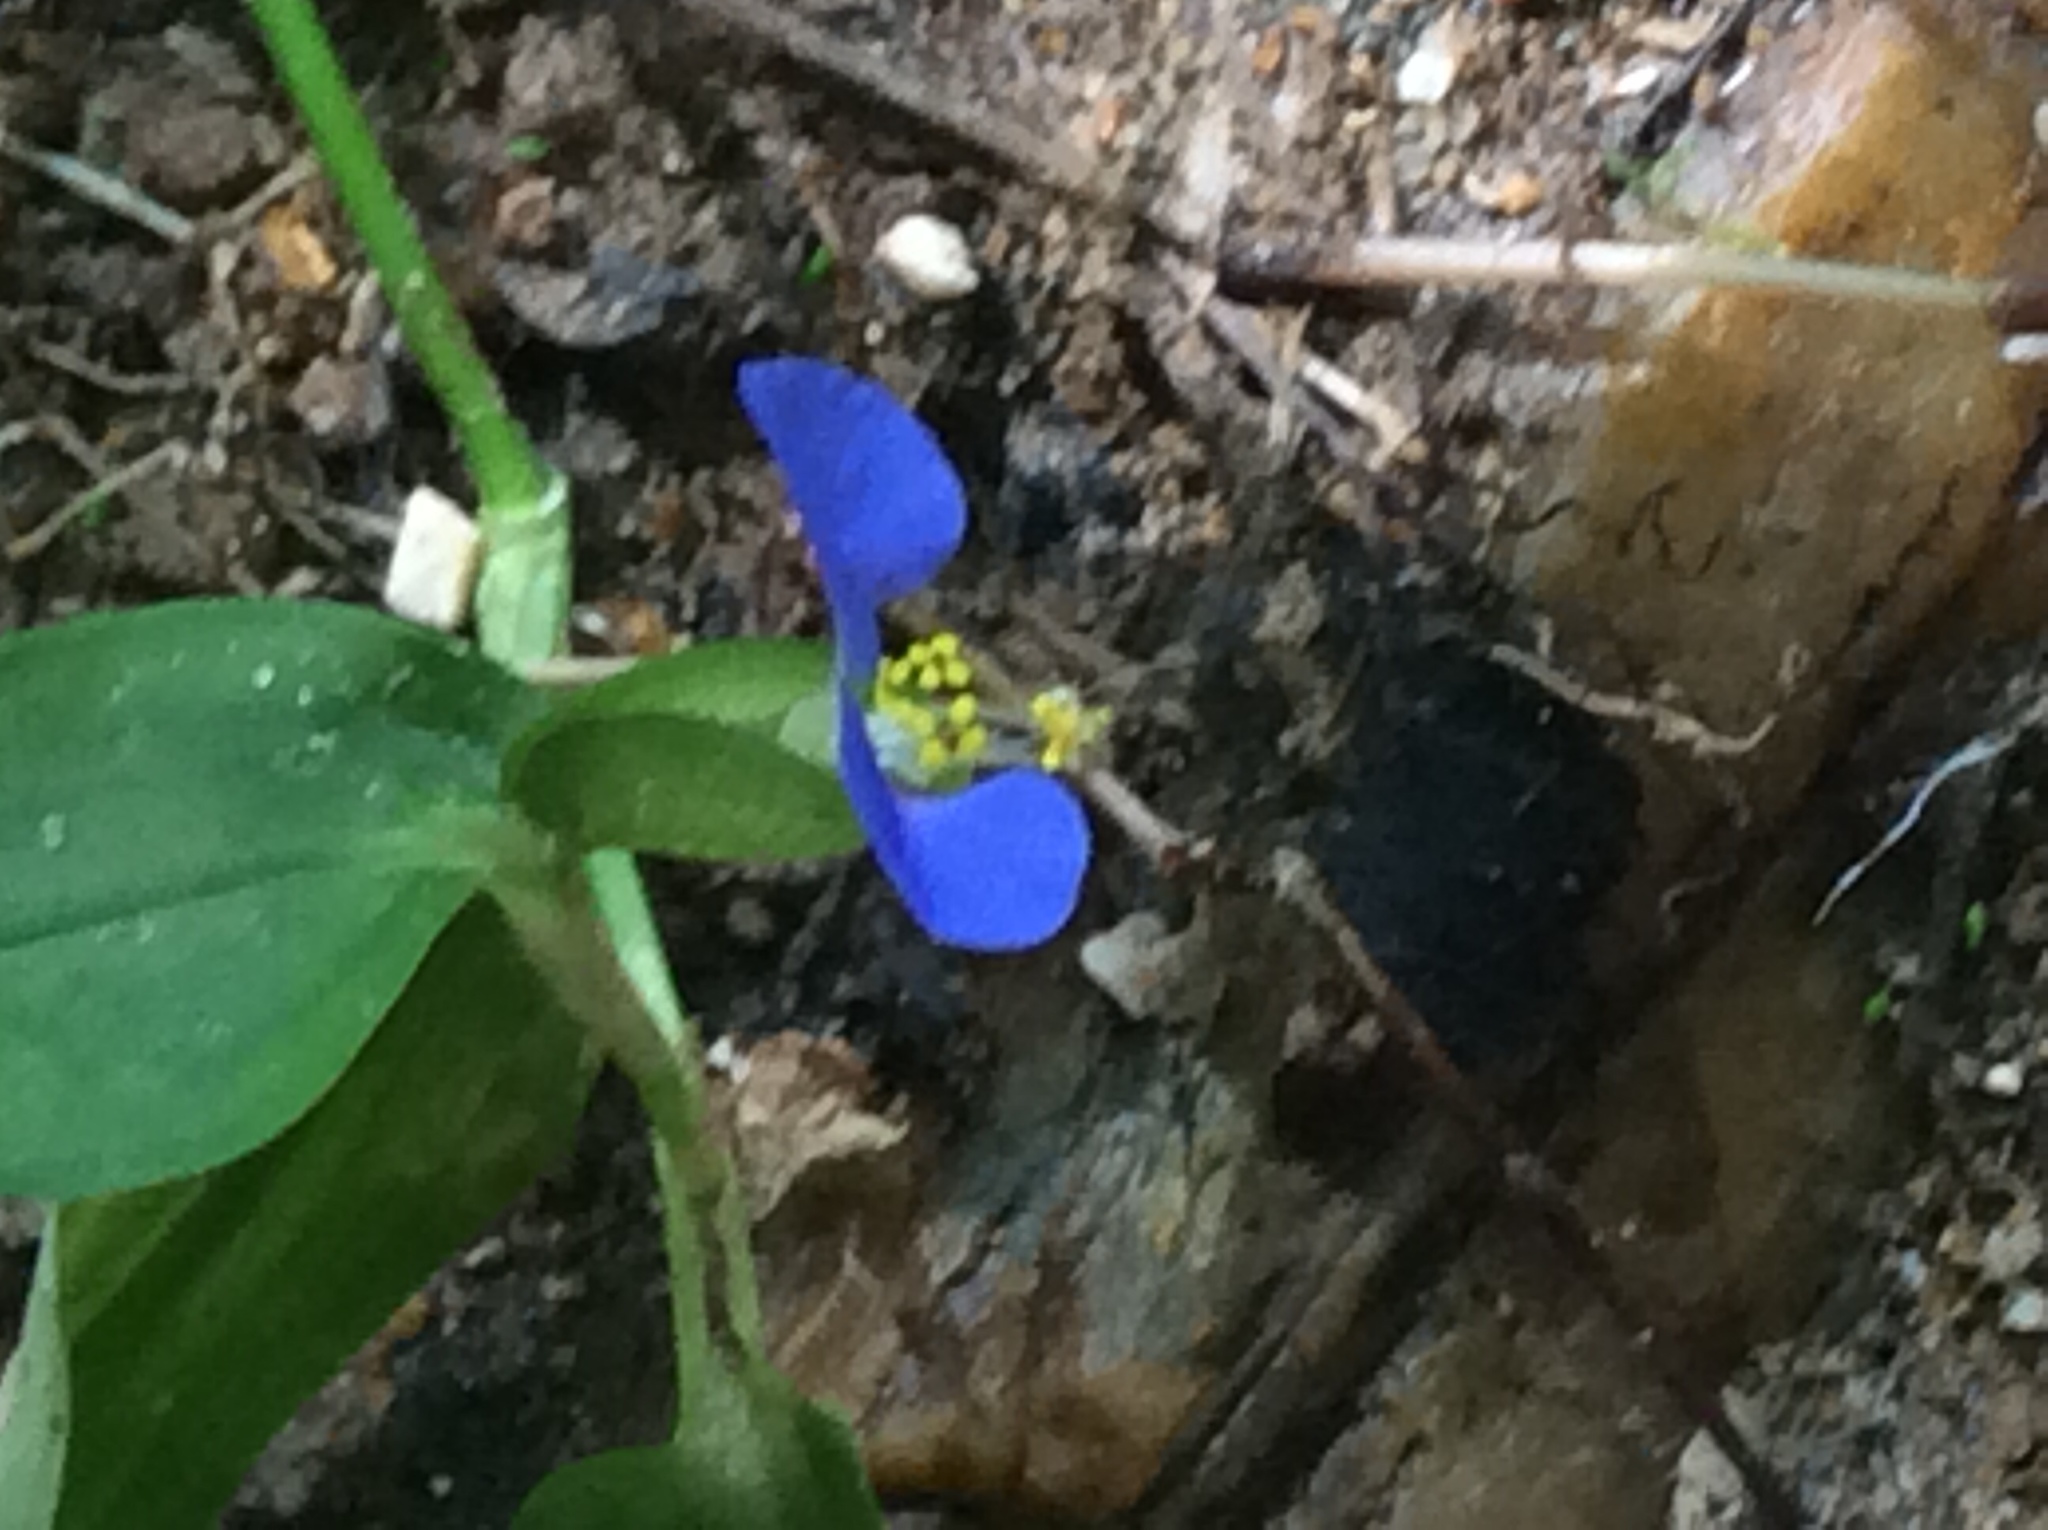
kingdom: Plantae
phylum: Tracheophyta
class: Liliopsida
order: Commelinales
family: Commelinaceae
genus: Commelina
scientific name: Commelina communis
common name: Asiatic dayflower
